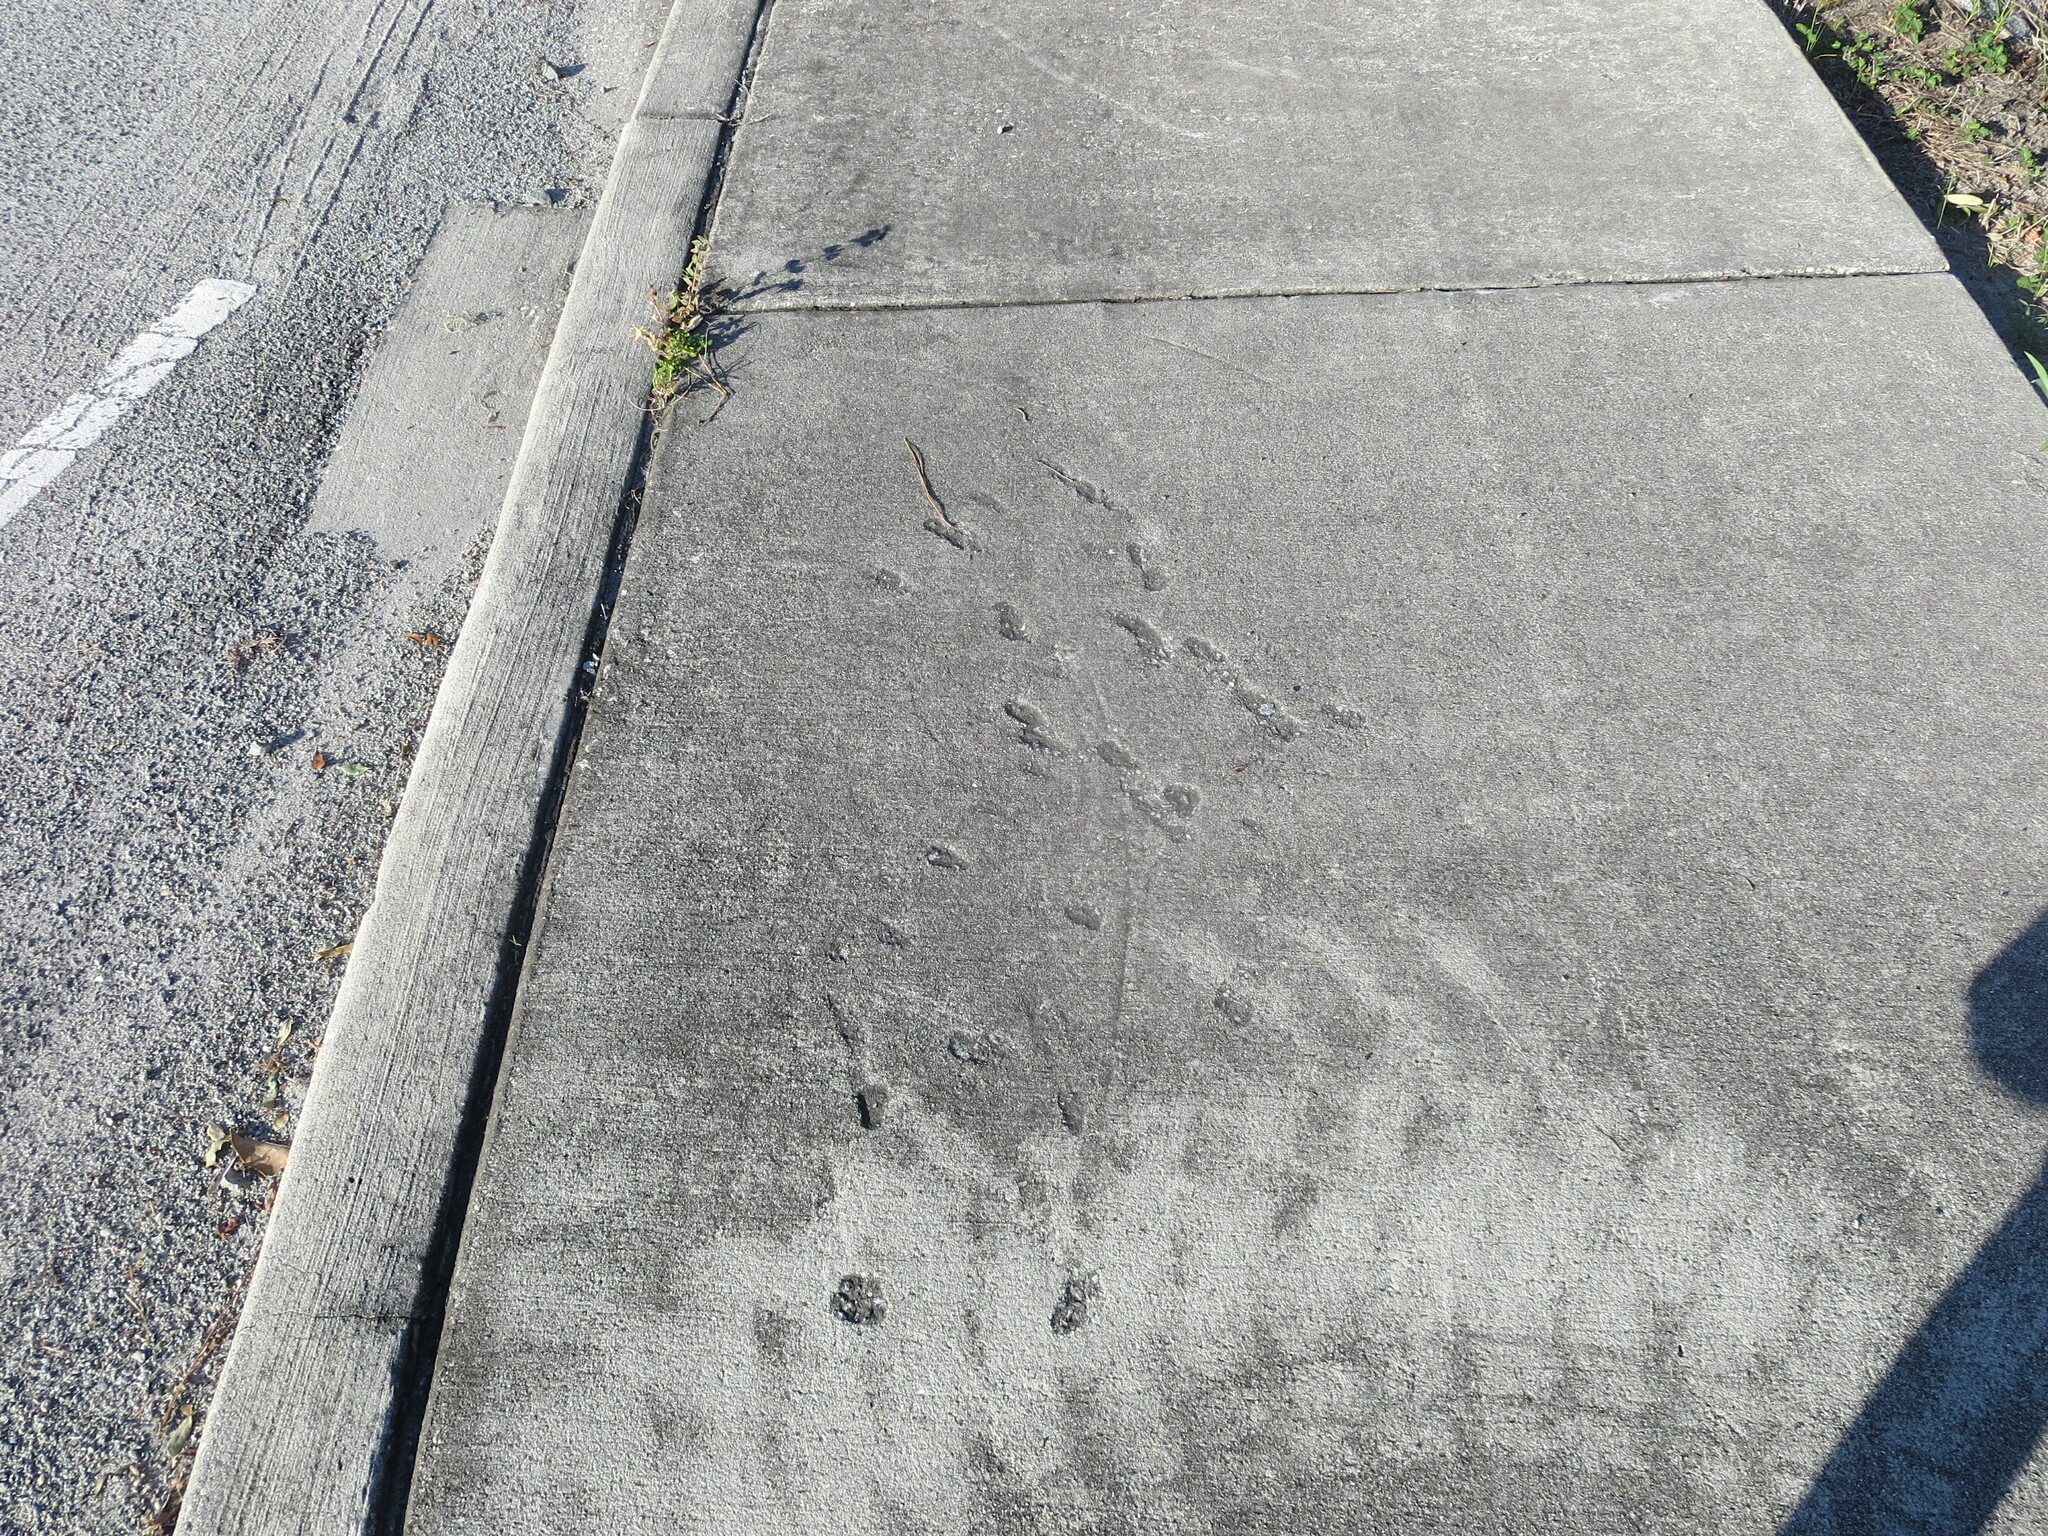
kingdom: Animalia
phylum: Chordata
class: Mammalia
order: Carnivora
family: Felidae
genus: Felis
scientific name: Felis catus
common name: Domestic cat
